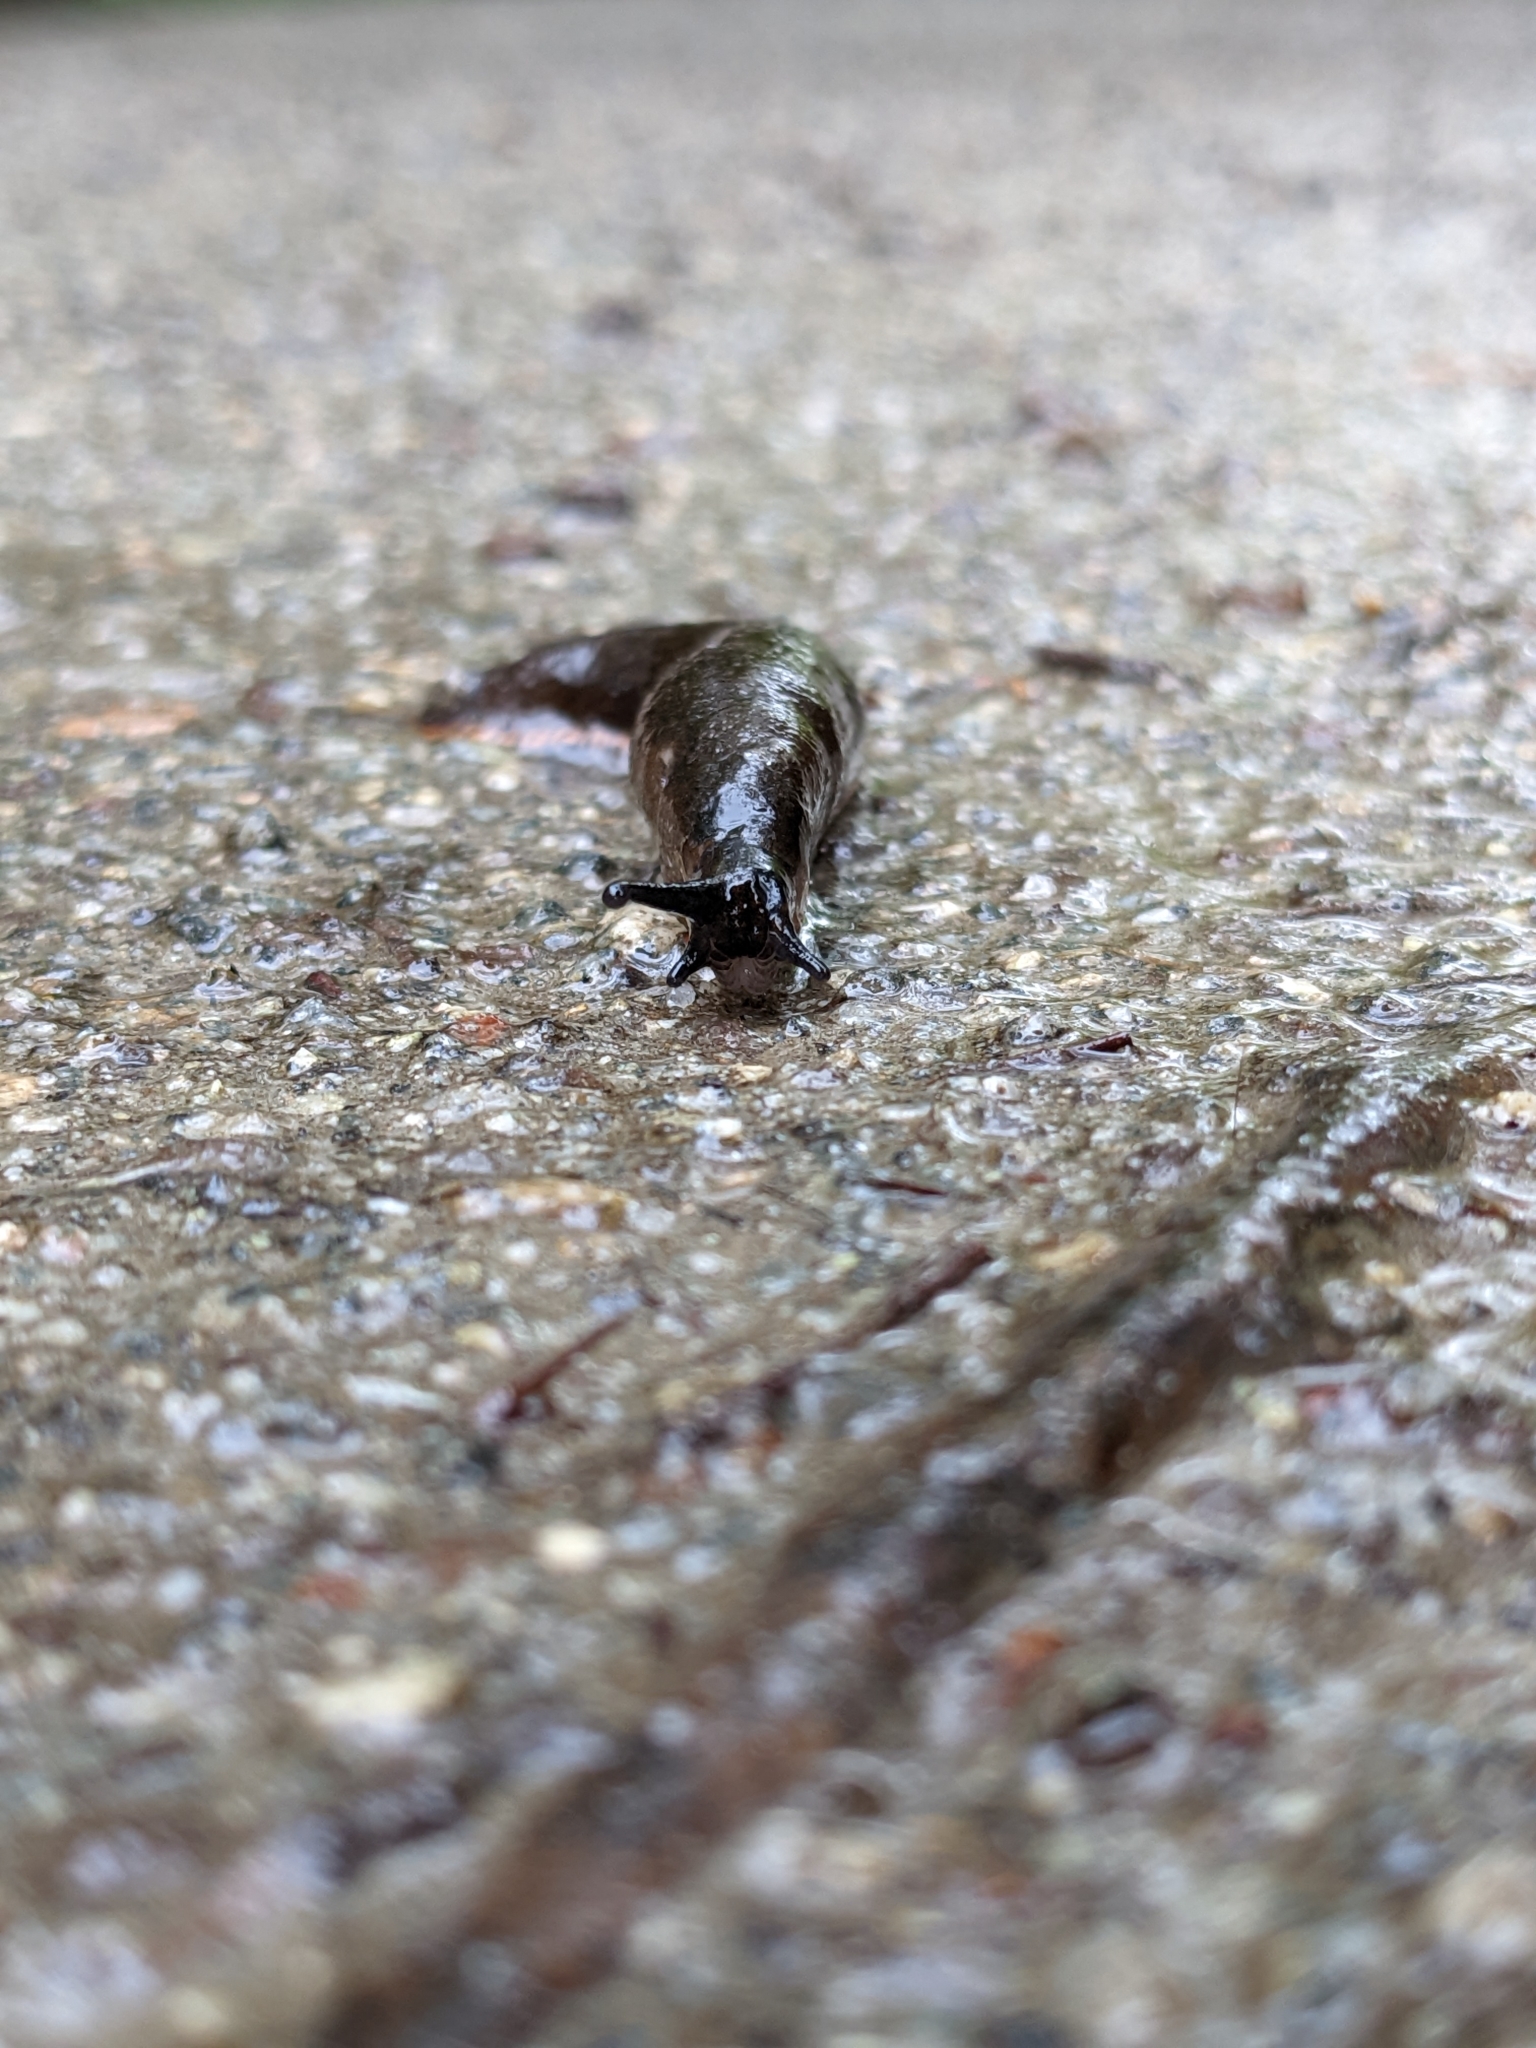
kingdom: Animalia
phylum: Mollusca
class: Gastropoda
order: Stylommatophora
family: Arionidae
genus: Arion
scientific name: Arion
